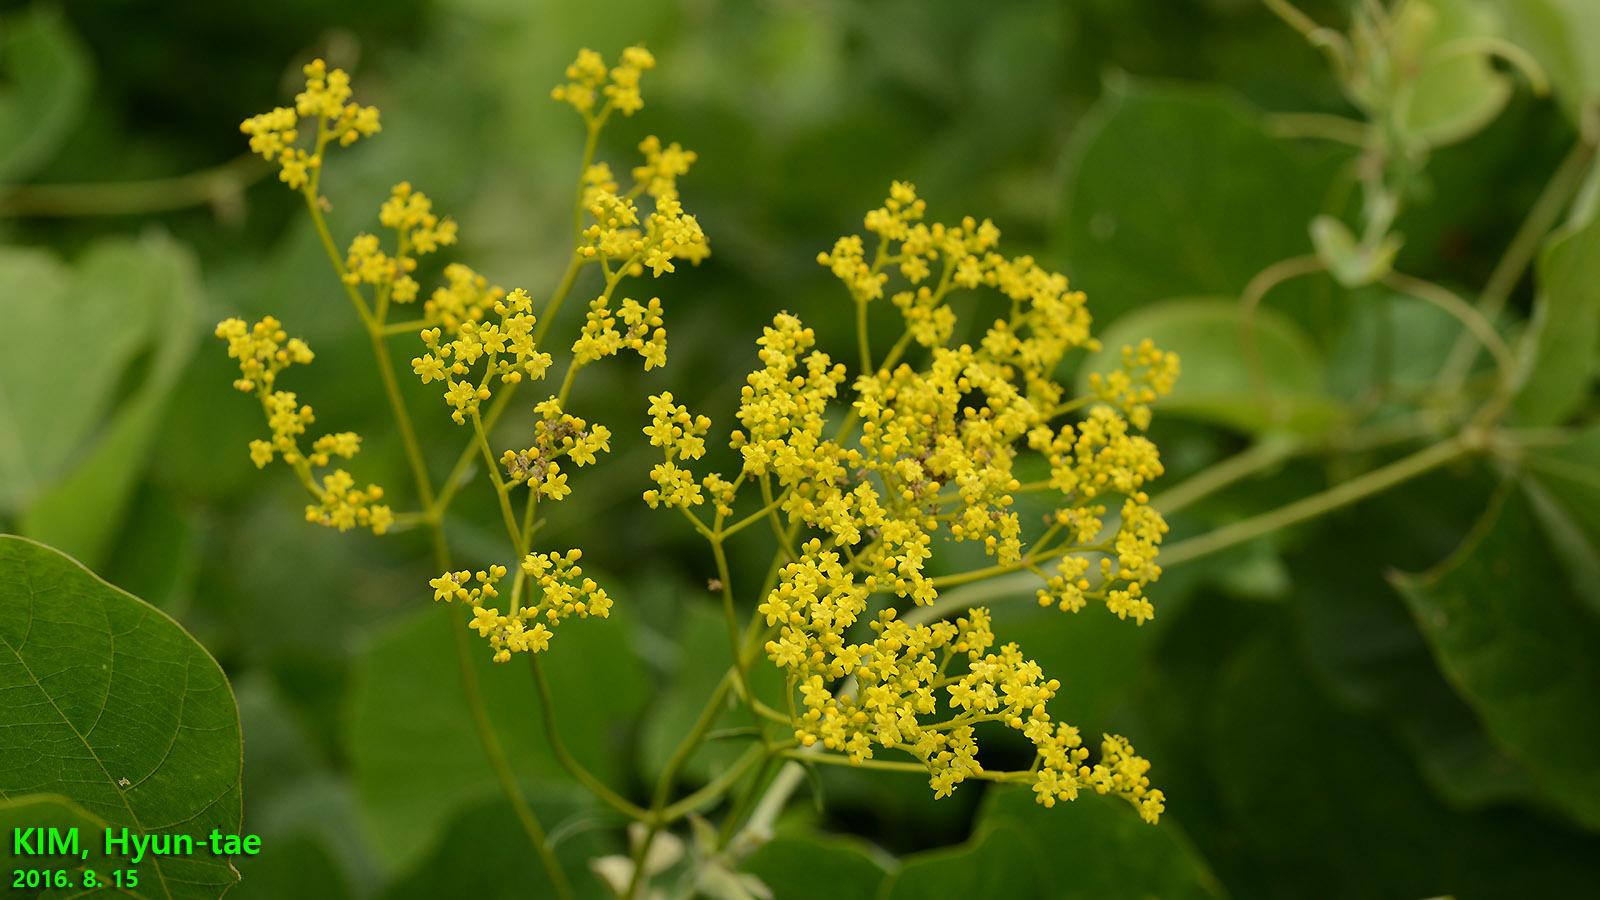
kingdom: Plantae
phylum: Tracheophyta
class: Magnoliopsida
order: Dipsacales
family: Caprifoliaceae
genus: Patrinia
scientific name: Patrinia scabiosifolia
